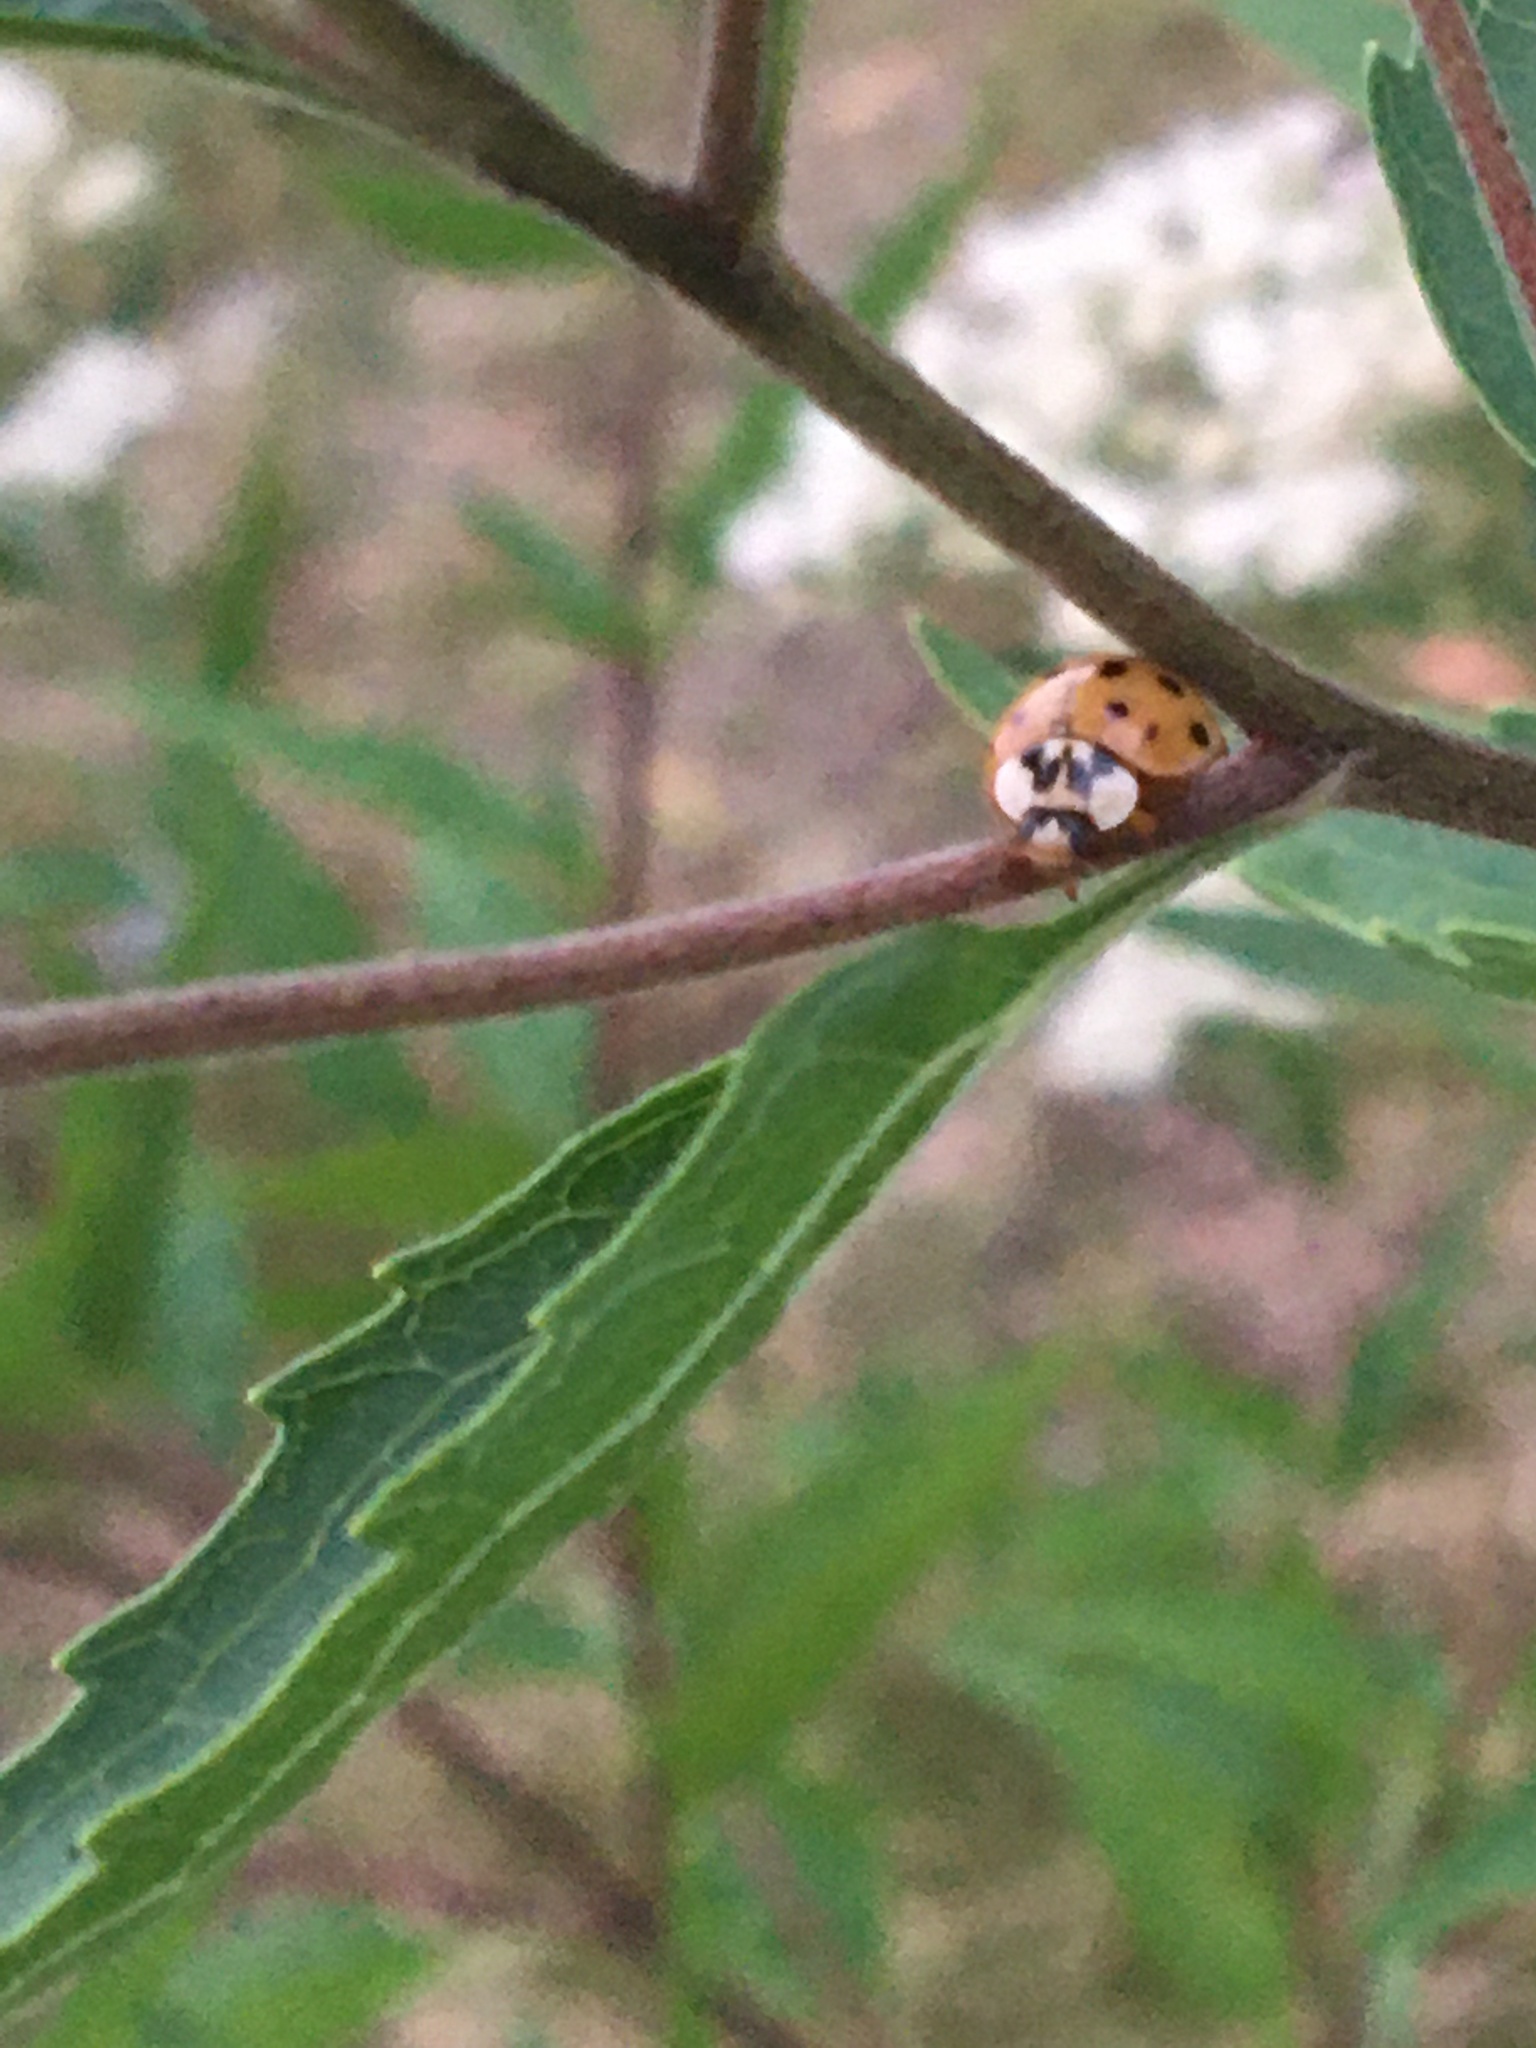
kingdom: Animalia
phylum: Arthropoda
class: Insecta
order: Coleoptera
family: Coccinellidae
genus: Harmonia
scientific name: Harmonia axyridis
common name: Harlequin ladybird
